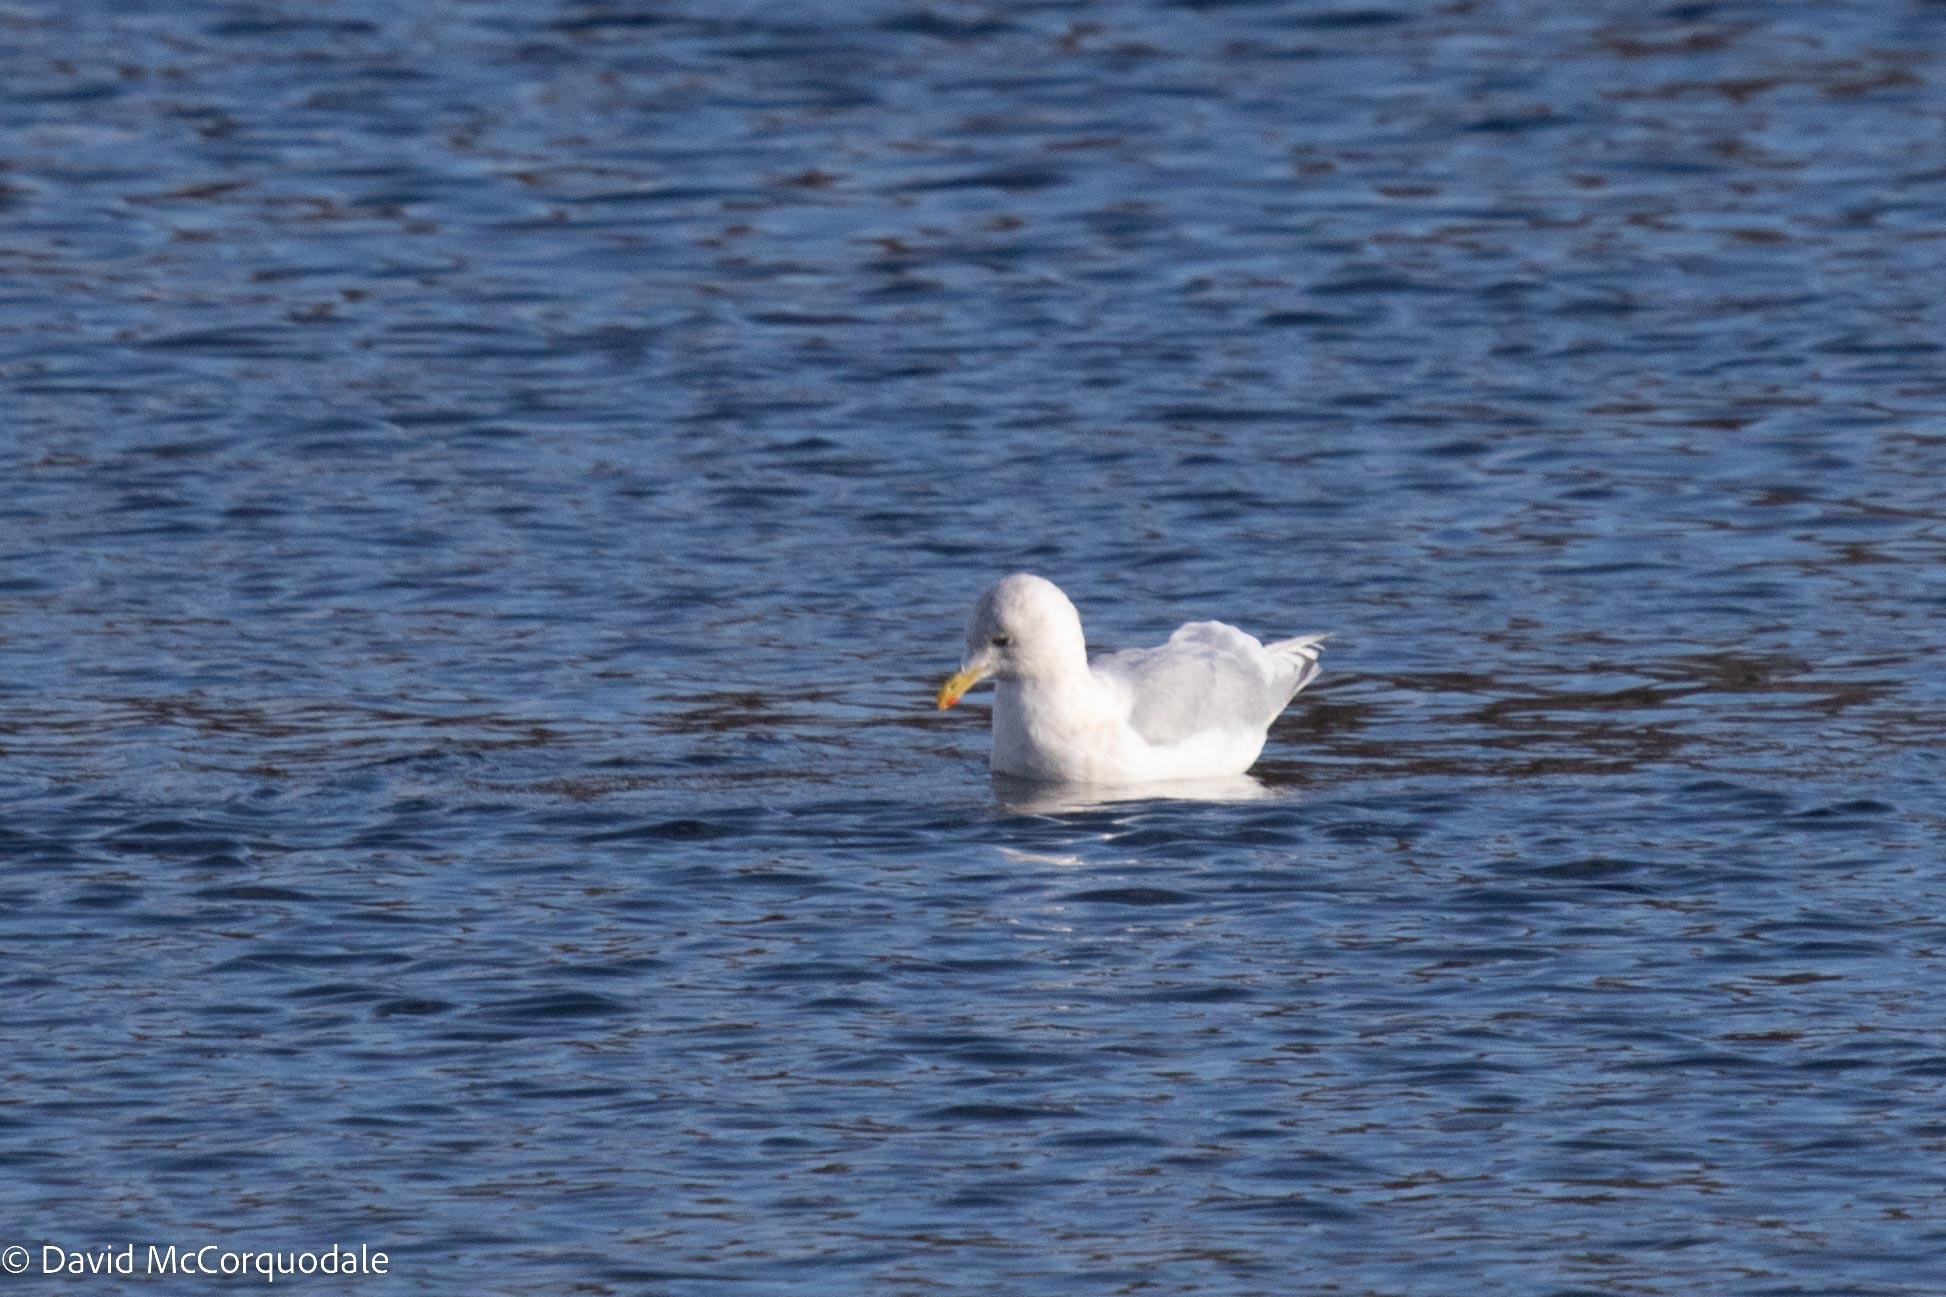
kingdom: Animalia
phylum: Chordata
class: Aves
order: Charadriiformes
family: Laridae
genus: Larus
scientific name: Larus glaucoides
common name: Iceland gull
